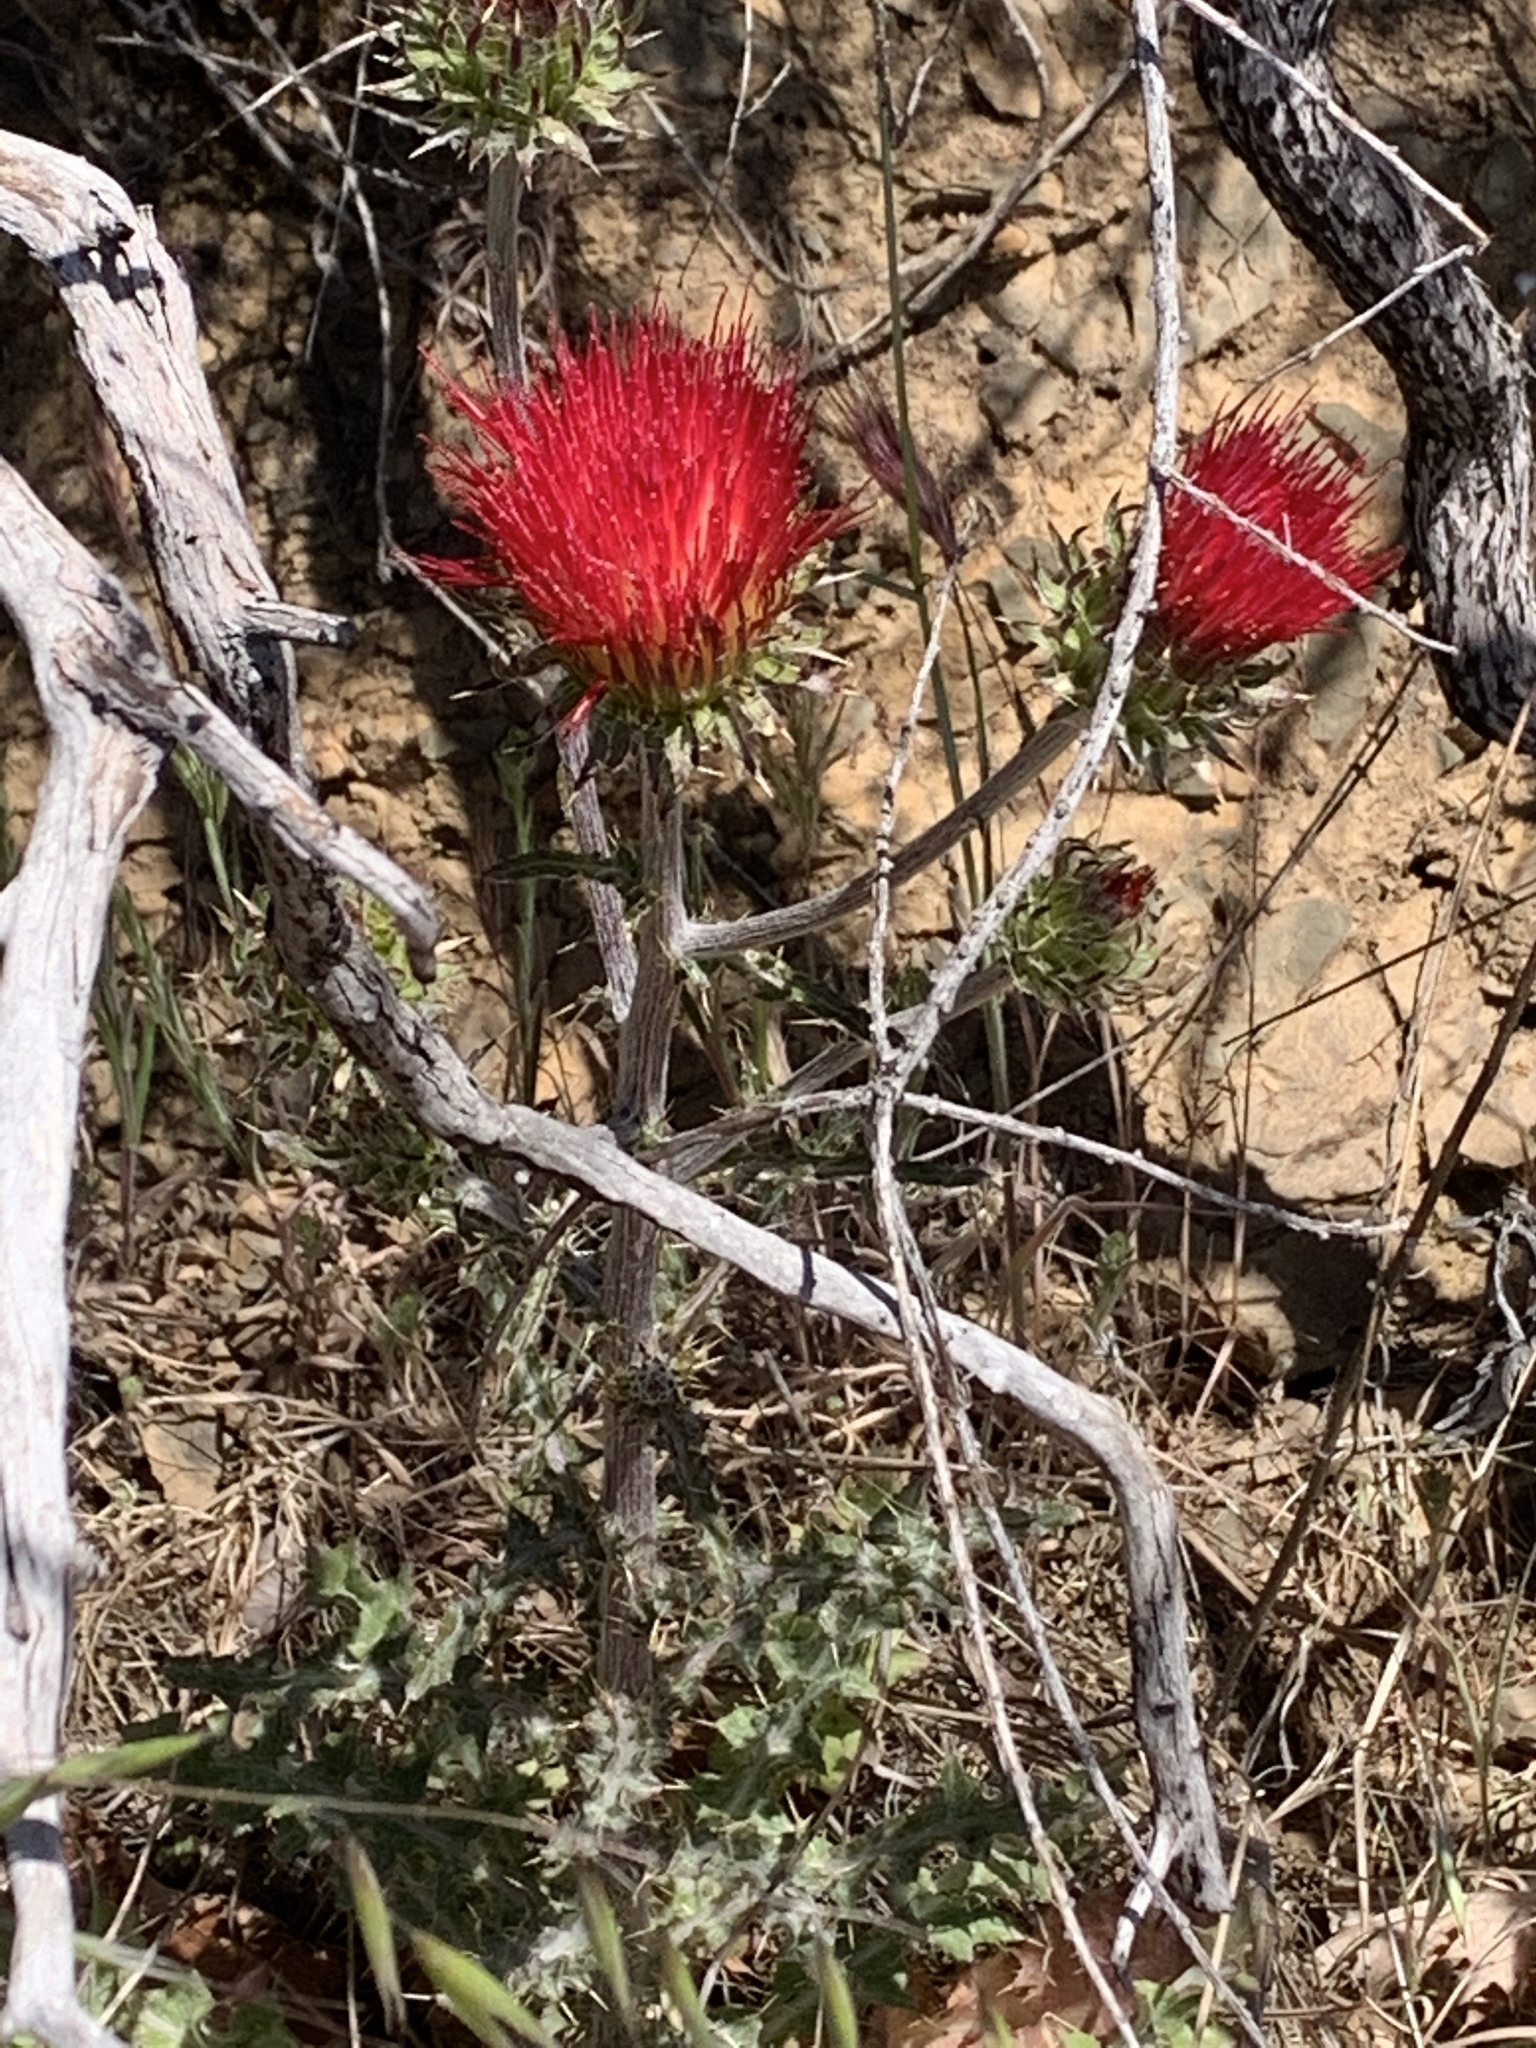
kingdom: Plantae
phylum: Tracheophyta
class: Magnoliopsida
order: Asterales
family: Asteraceae
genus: Cirsium
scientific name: Cirsium occidentale
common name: Western thistle
